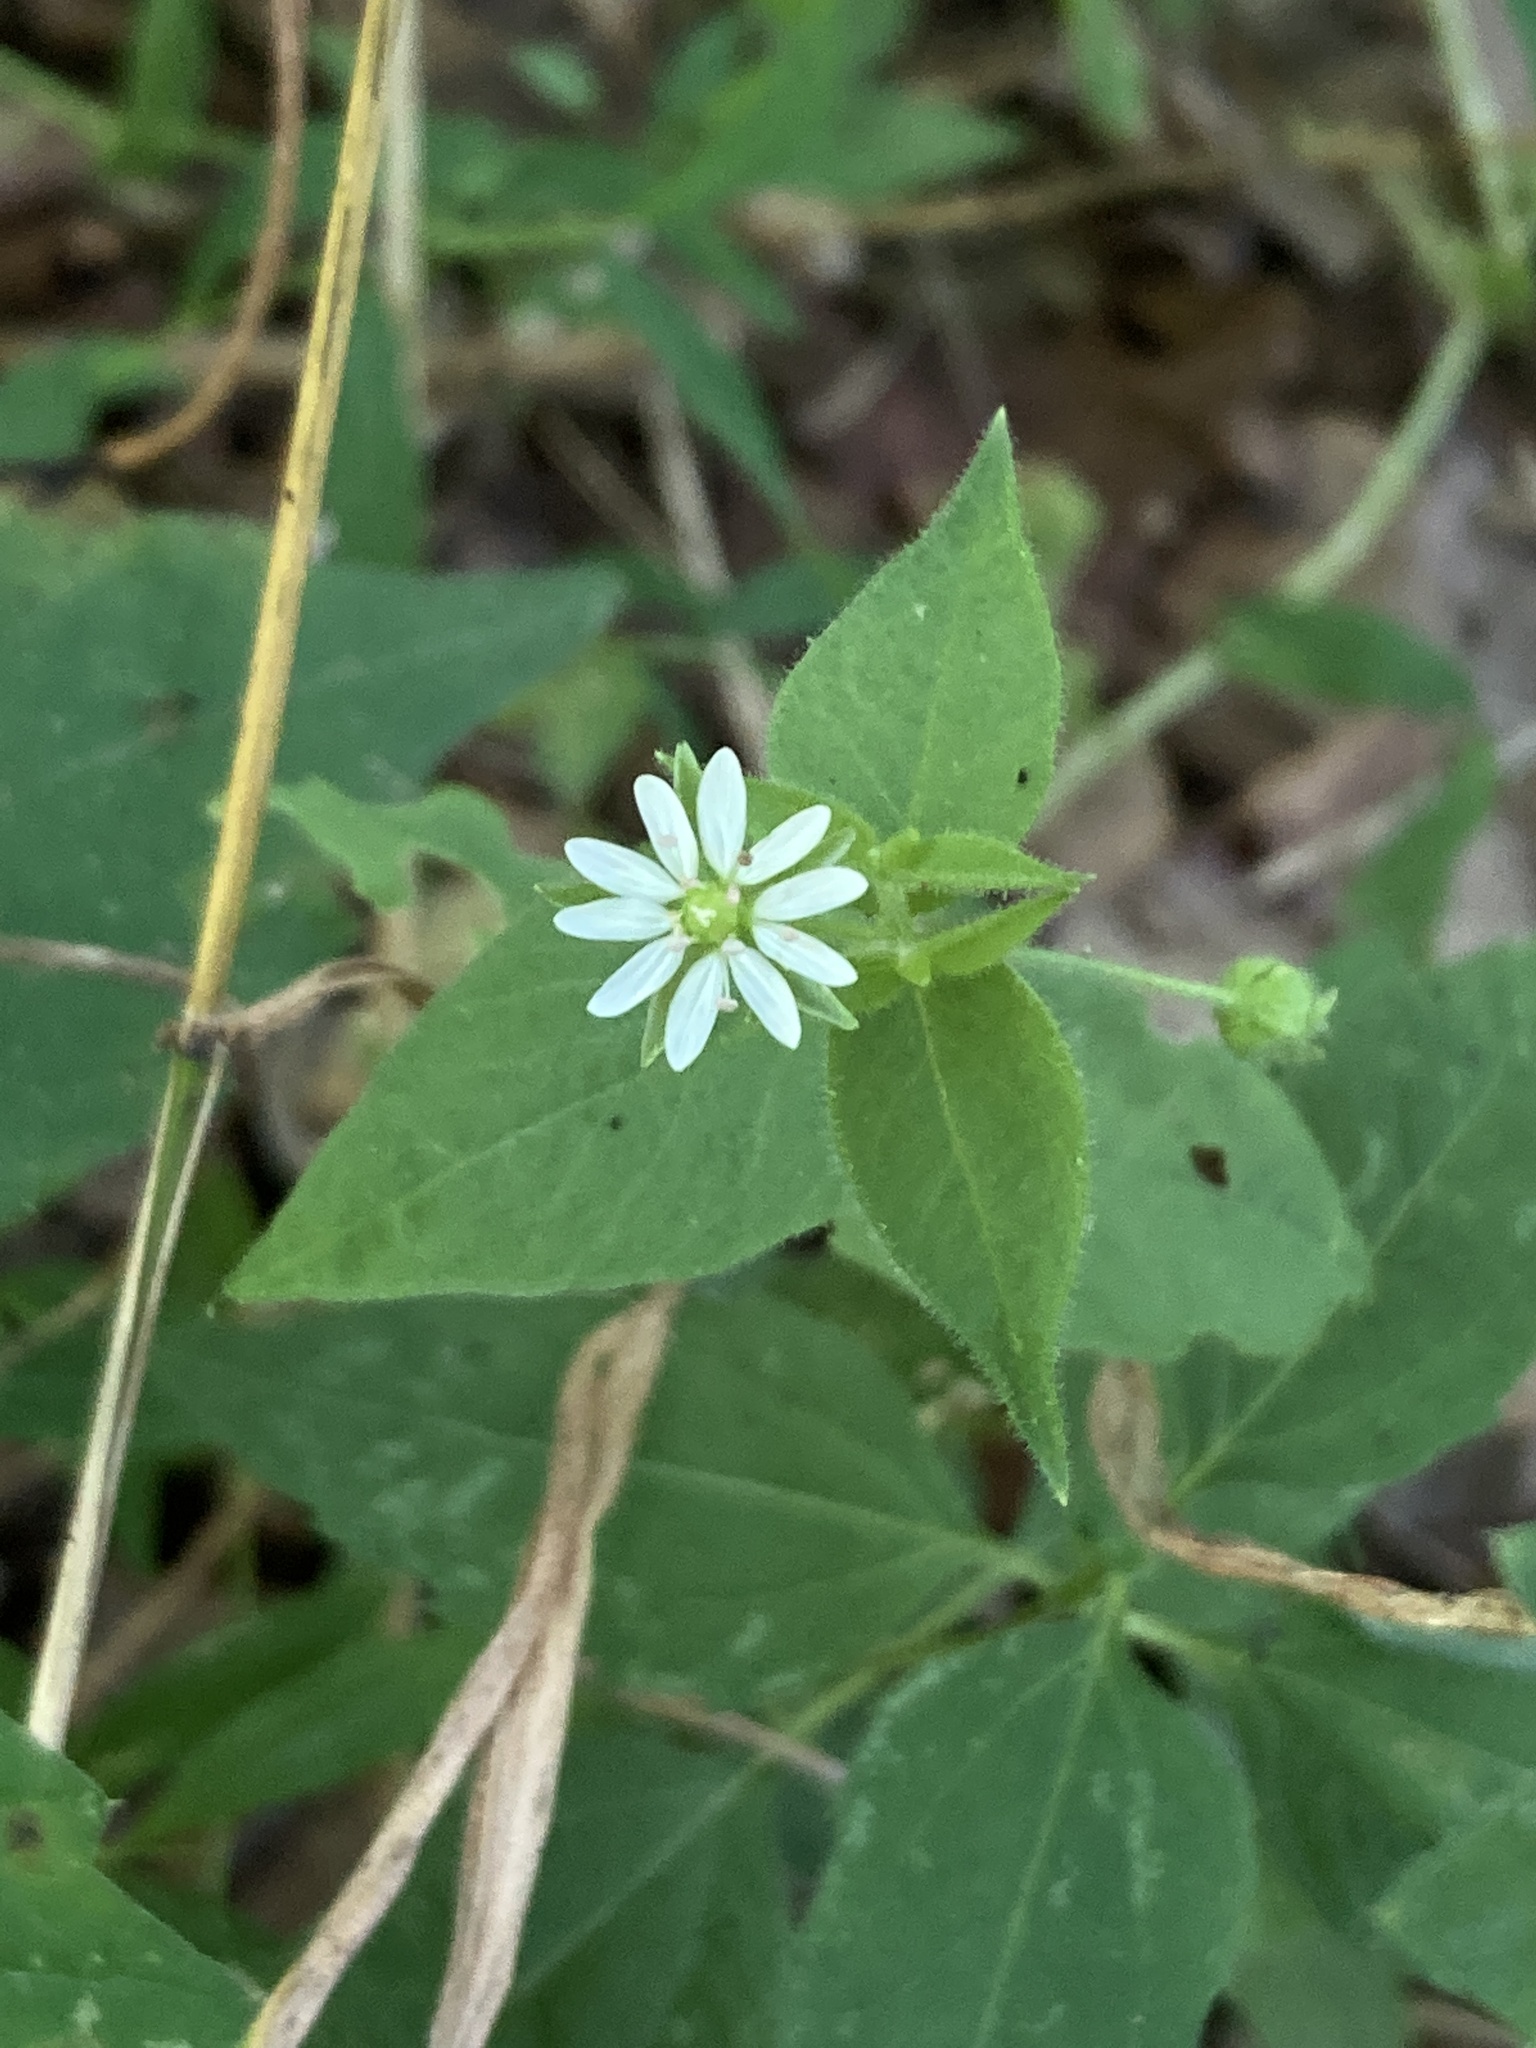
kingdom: Plantae
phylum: Tracheophyta
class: Magnoliopsida
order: Caryophyllales
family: Caryophyllaceae
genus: Stellaria
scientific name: Stellaria aquatica
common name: Water chickweed
